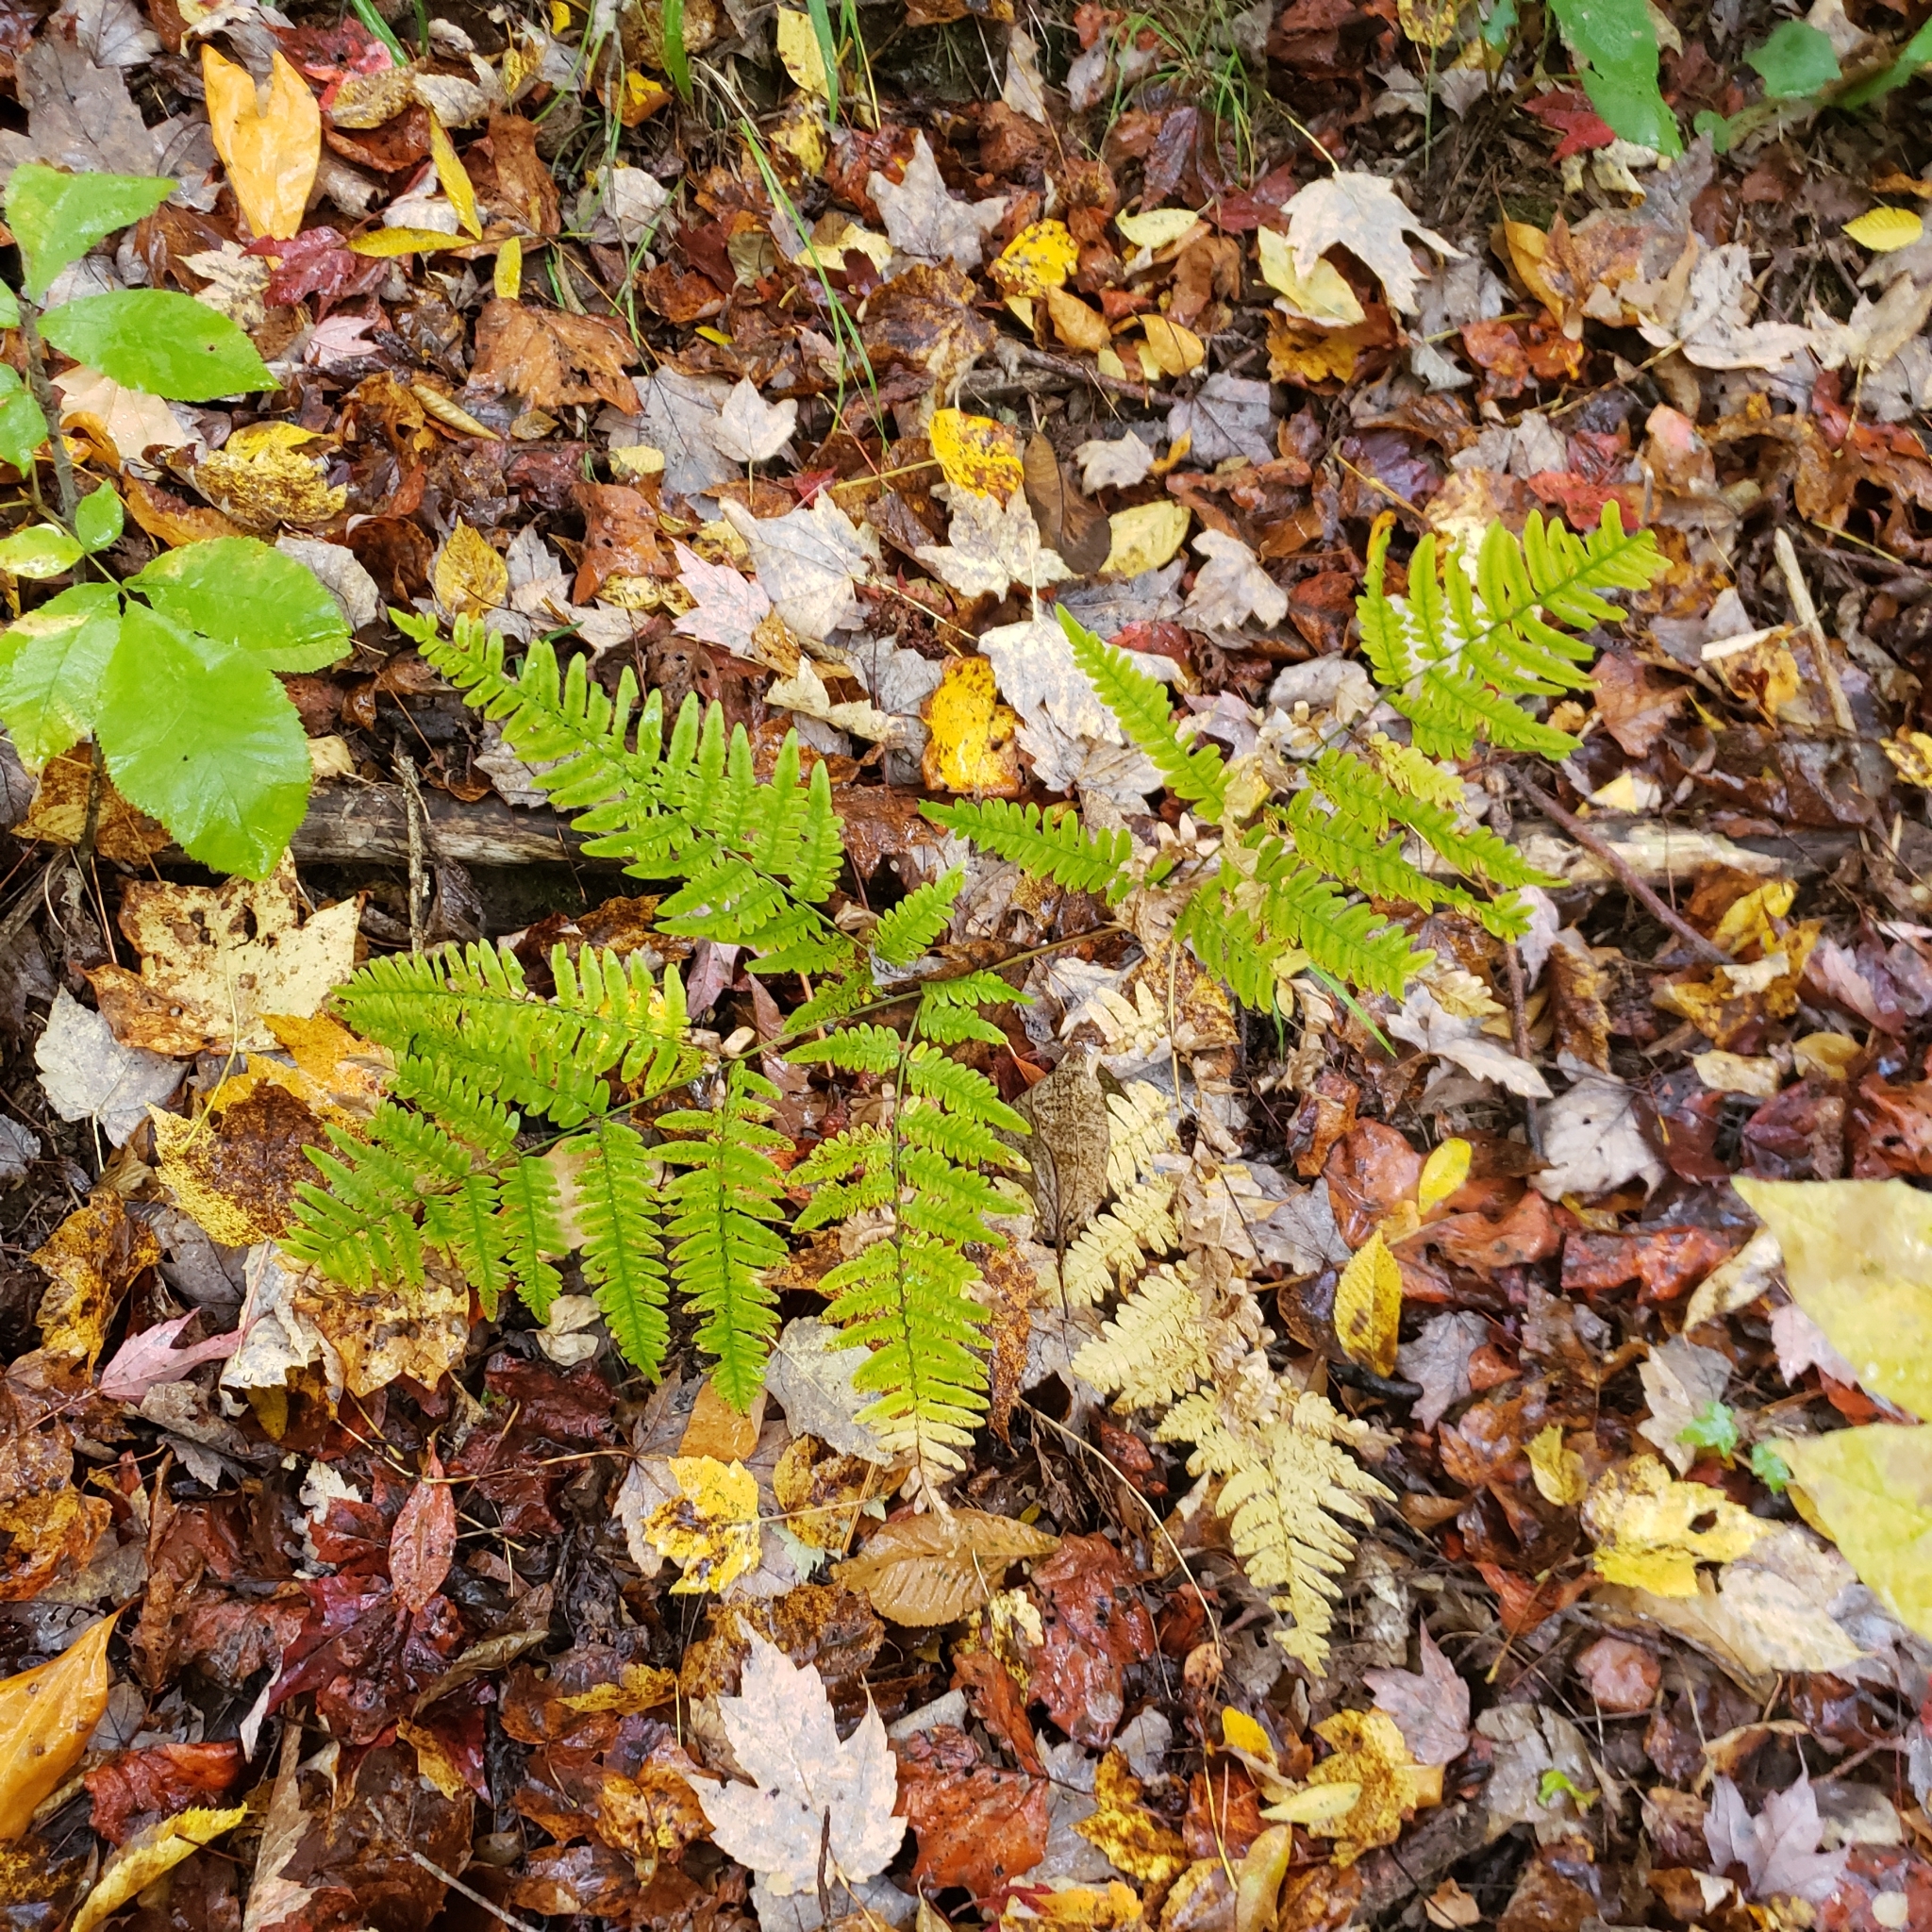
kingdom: Plantae
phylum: Tracheophyta
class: Polypodiopsida
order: Polypodiales
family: Dennstaedtiaceae
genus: Pteridium
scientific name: Pteridium aquilinum
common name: Bracken
